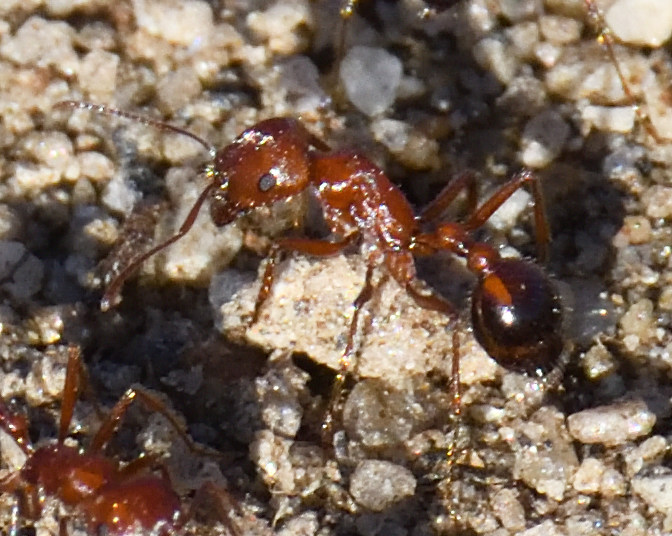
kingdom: Animalia
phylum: Arthropoda
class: Insecta
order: Hymenoptera
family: Formicidae
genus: Pogonomyrmex
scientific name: Pogonomyrmex californicus
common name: California harvester ant
